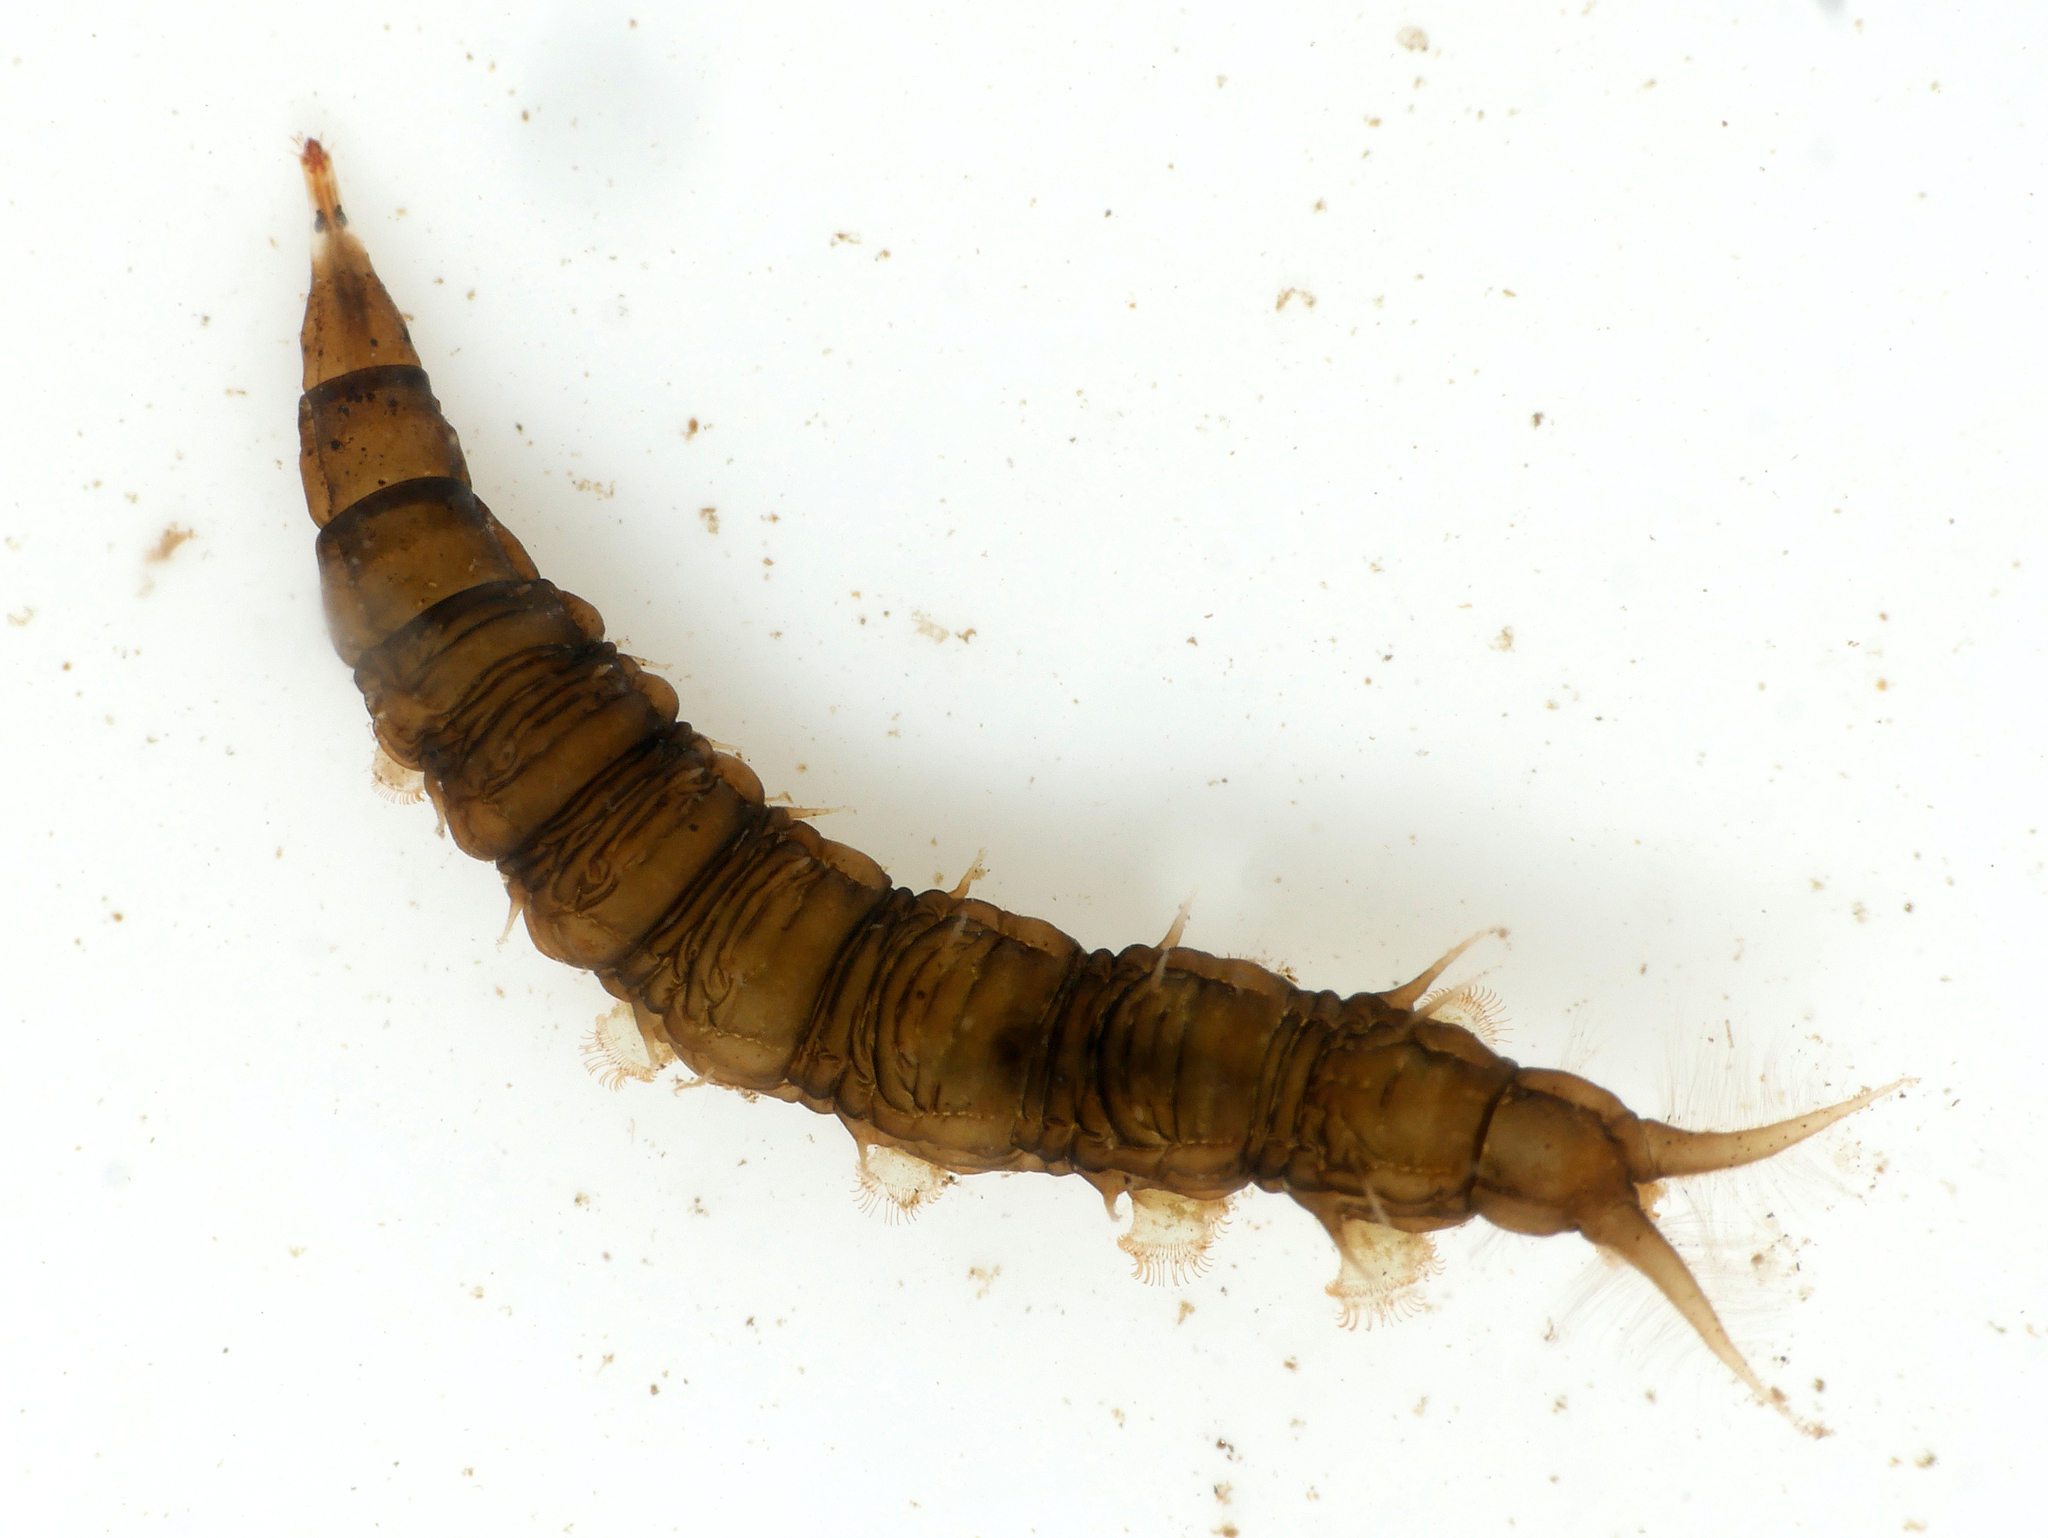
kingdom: Animalia
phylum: Arthropoda
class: Insecta
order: Diptera
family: Athericidae
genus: Atherix
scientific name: Atherix ibis
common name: Yellow-legged water-snipefly
